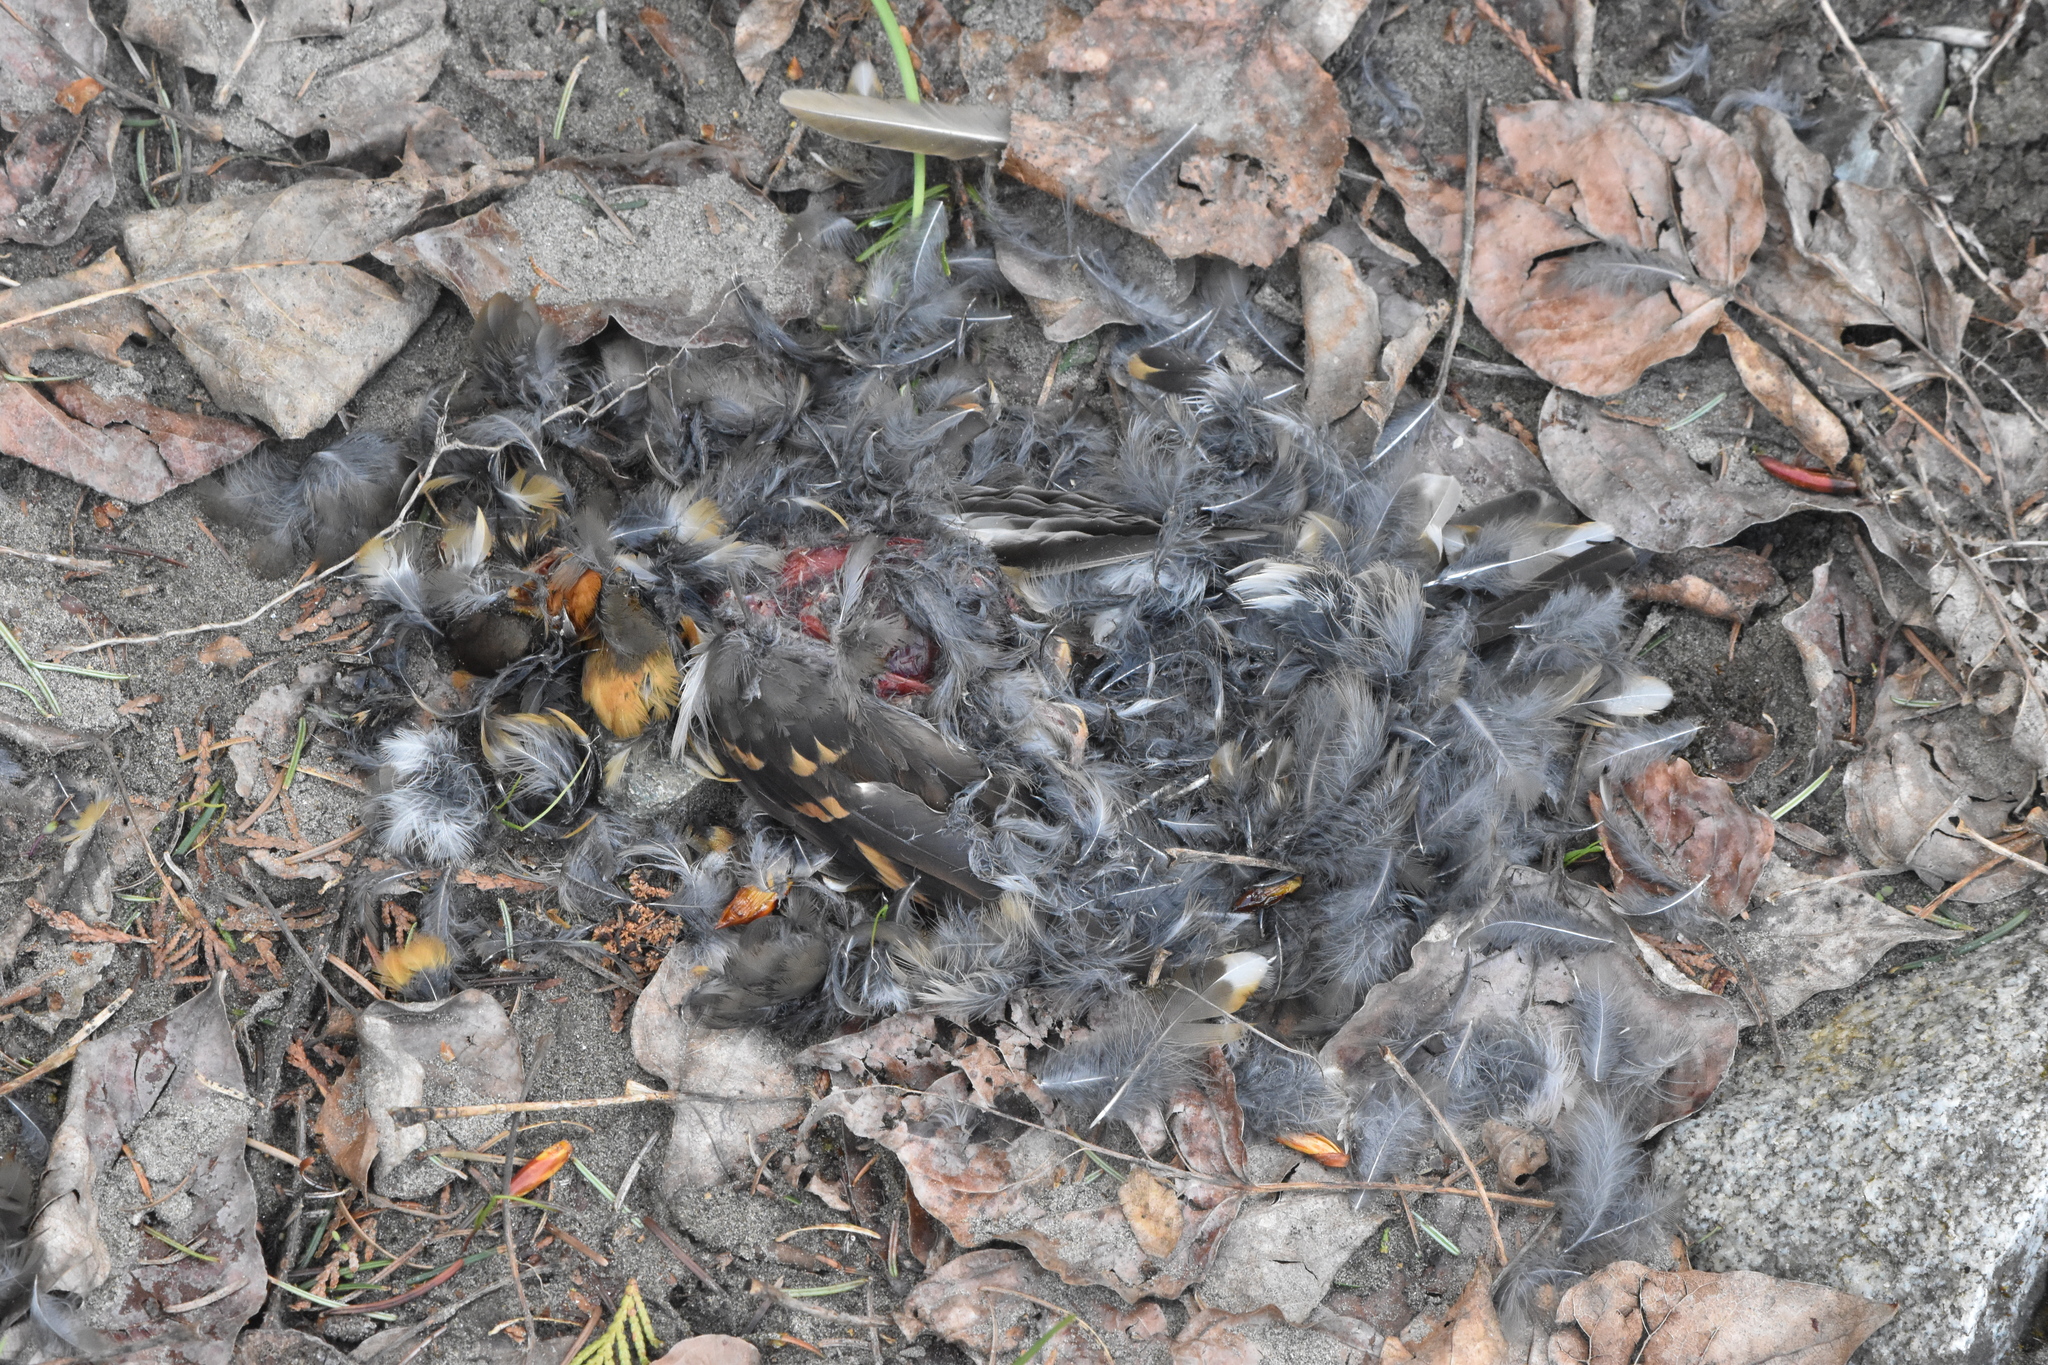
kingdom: Animalia
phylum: Chordata
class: Aves
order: Passeriformes
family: Turdidae
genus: Ixoreus
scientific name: Ixoreus naevius
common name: Varied thrush
